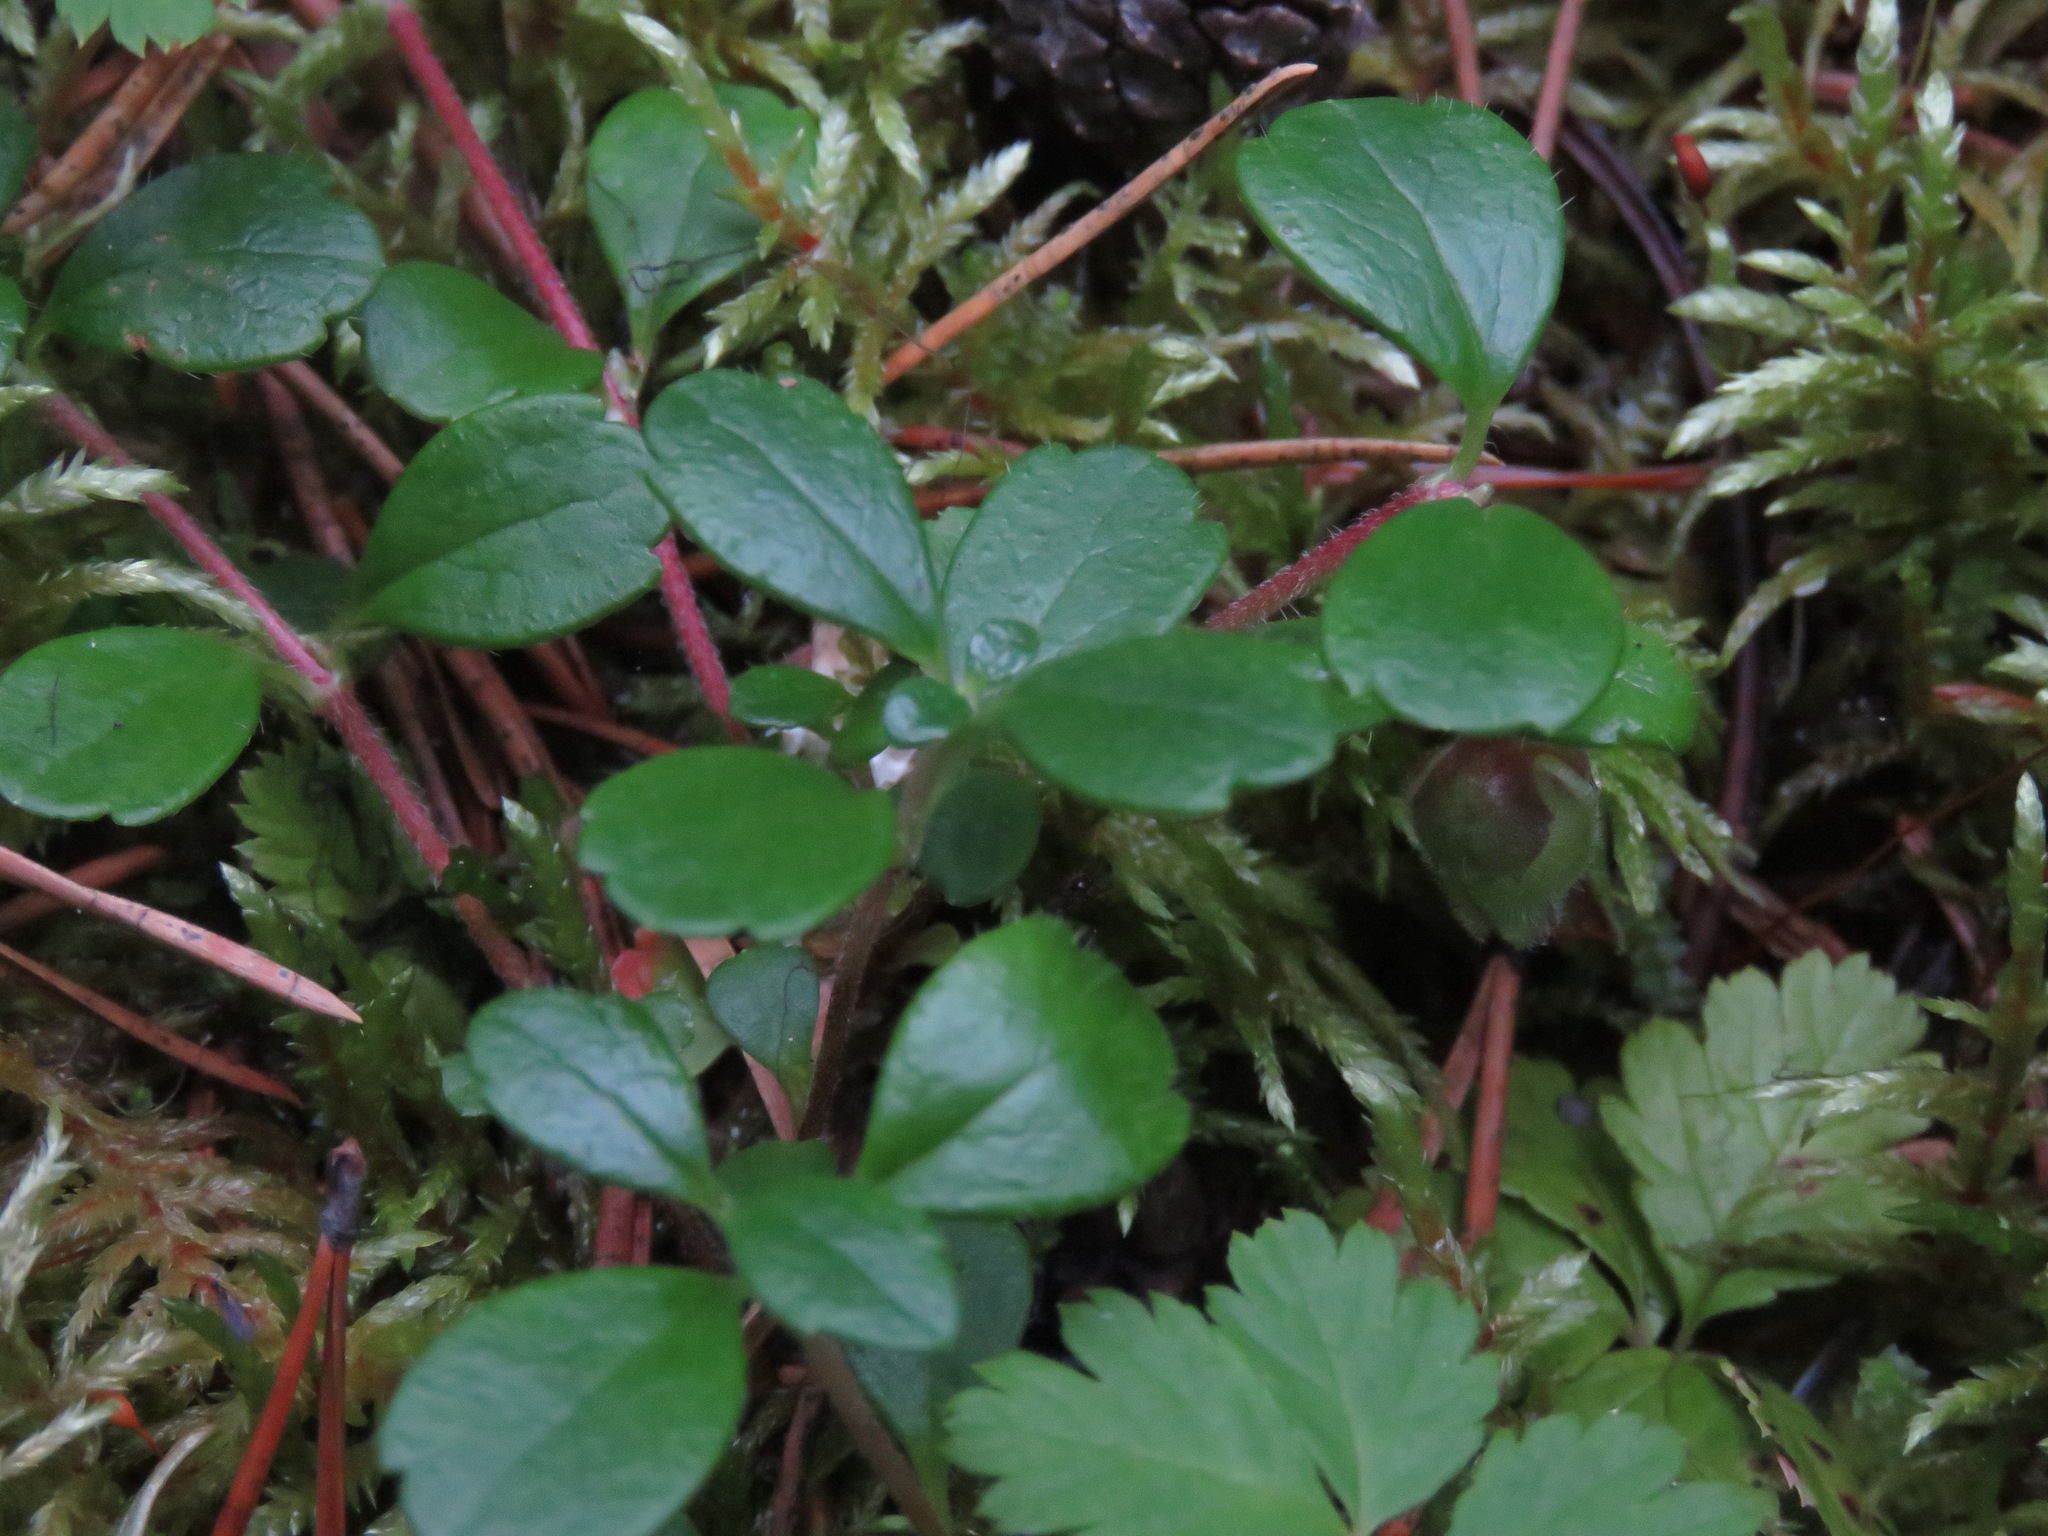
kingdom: Plantae
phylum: Tracheophyta
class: Magnoliopsida
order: Dipsacales
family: Caprifoliaceae
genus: Linnaea
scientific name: Linnaea borealis
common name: Twinflower
